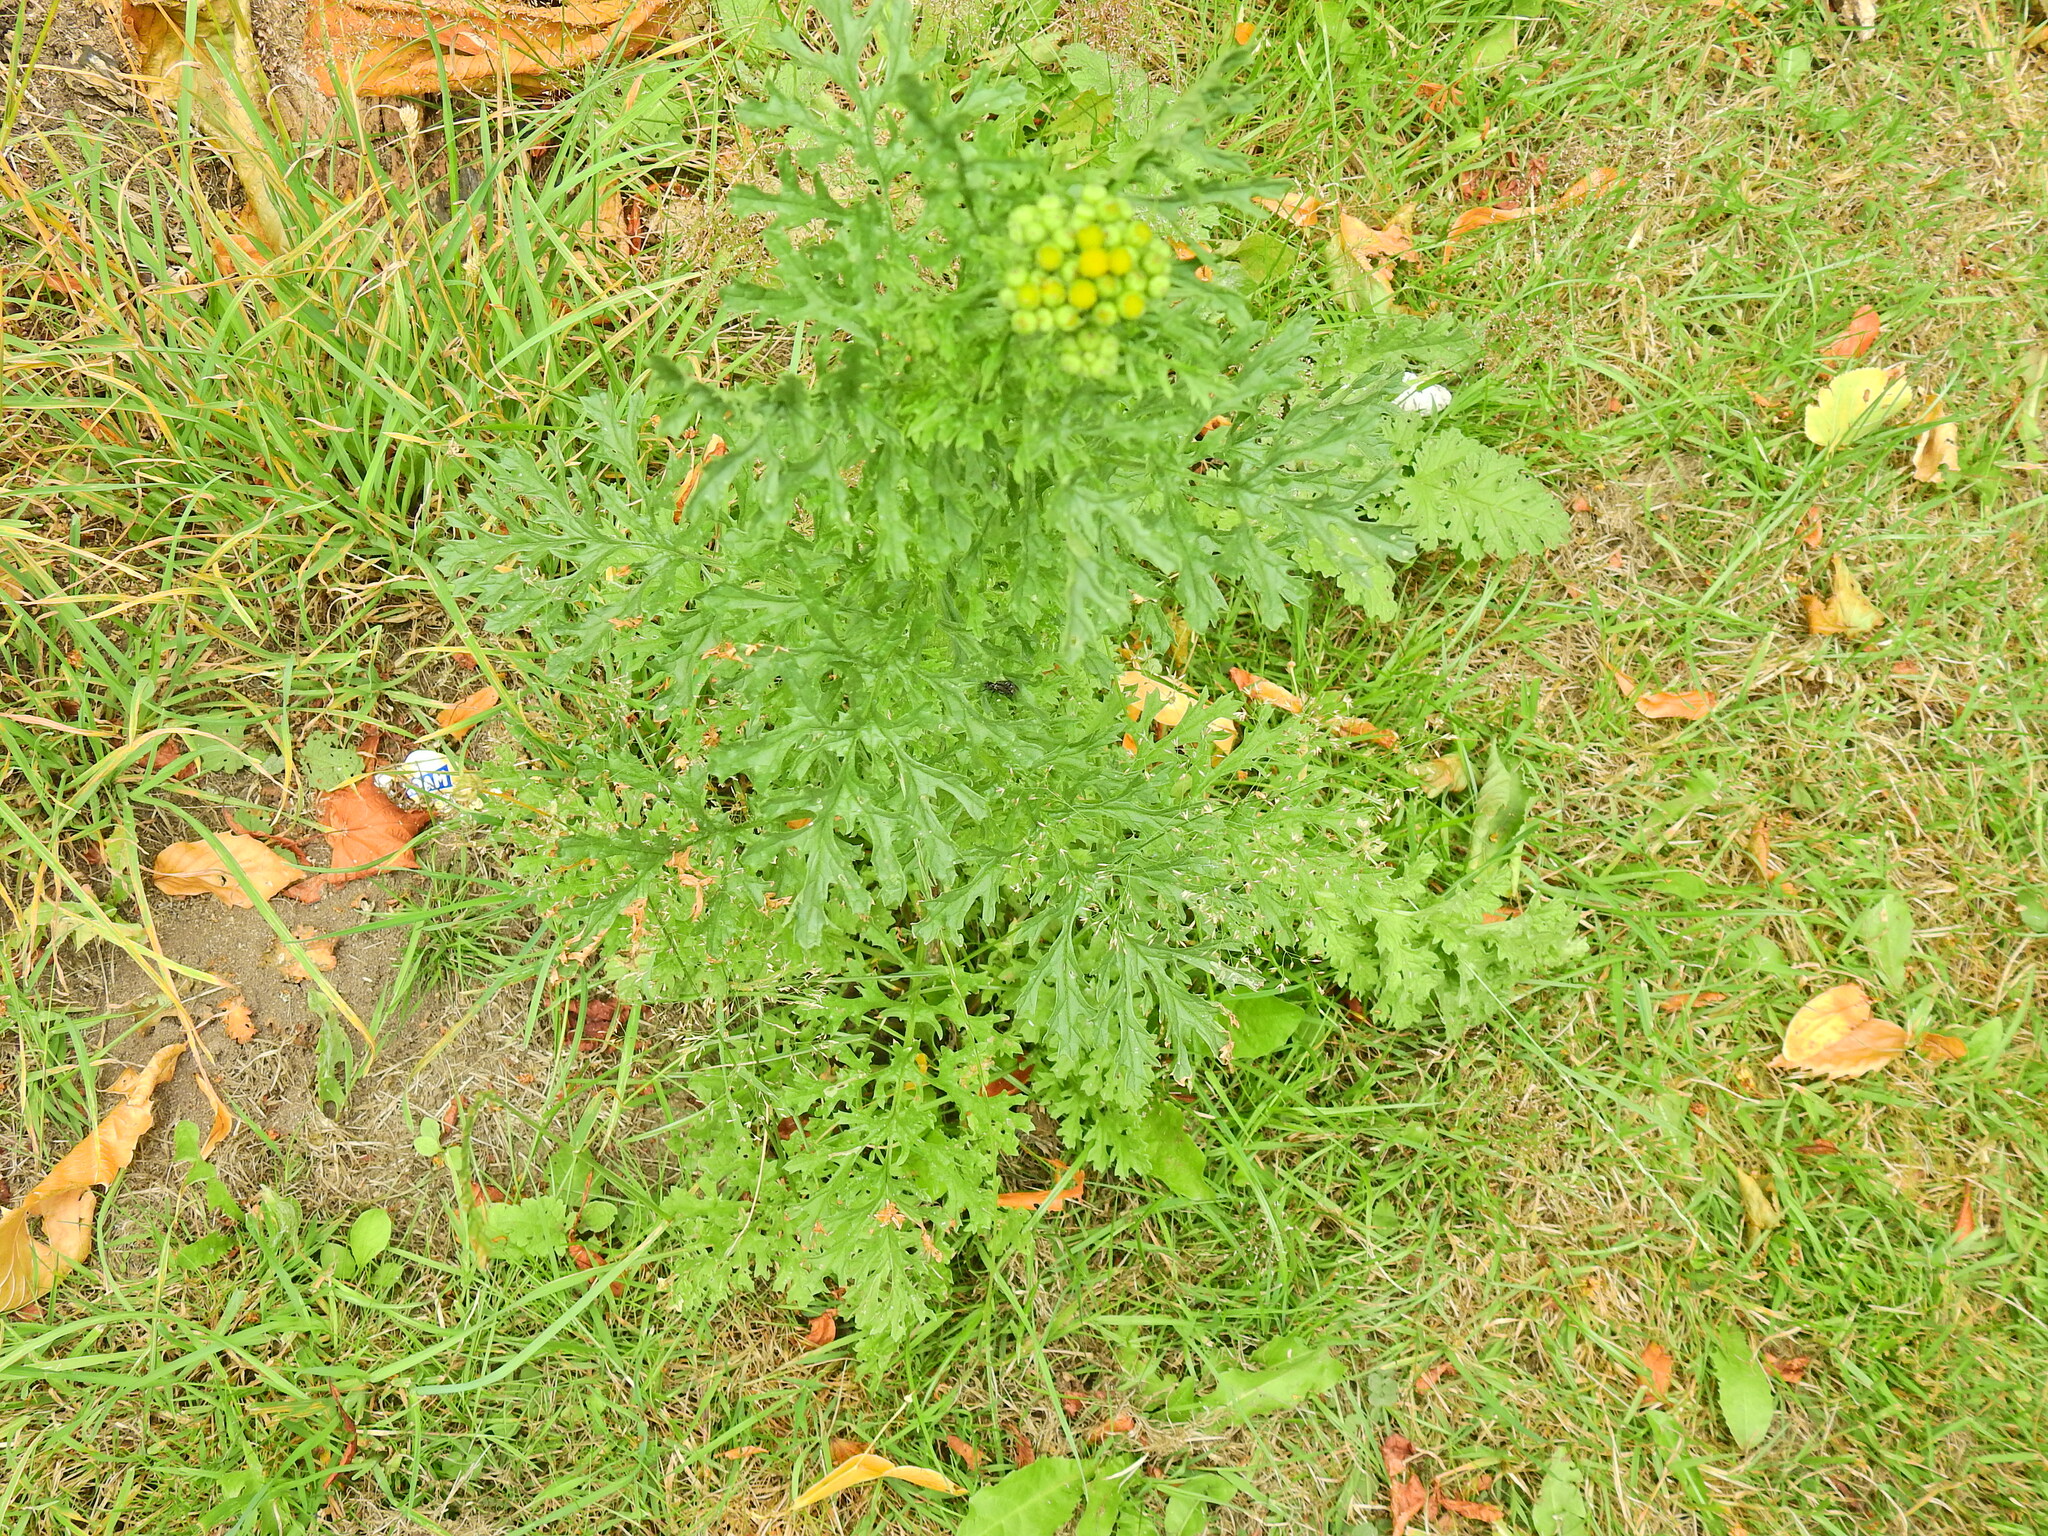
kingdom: Plantae
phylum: Tracheophyta
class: Magnoliopsida
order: Asterales
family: Asteraceae
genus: Jacobaea
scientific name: Jacobaea vulgaris
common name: Stinking willie
